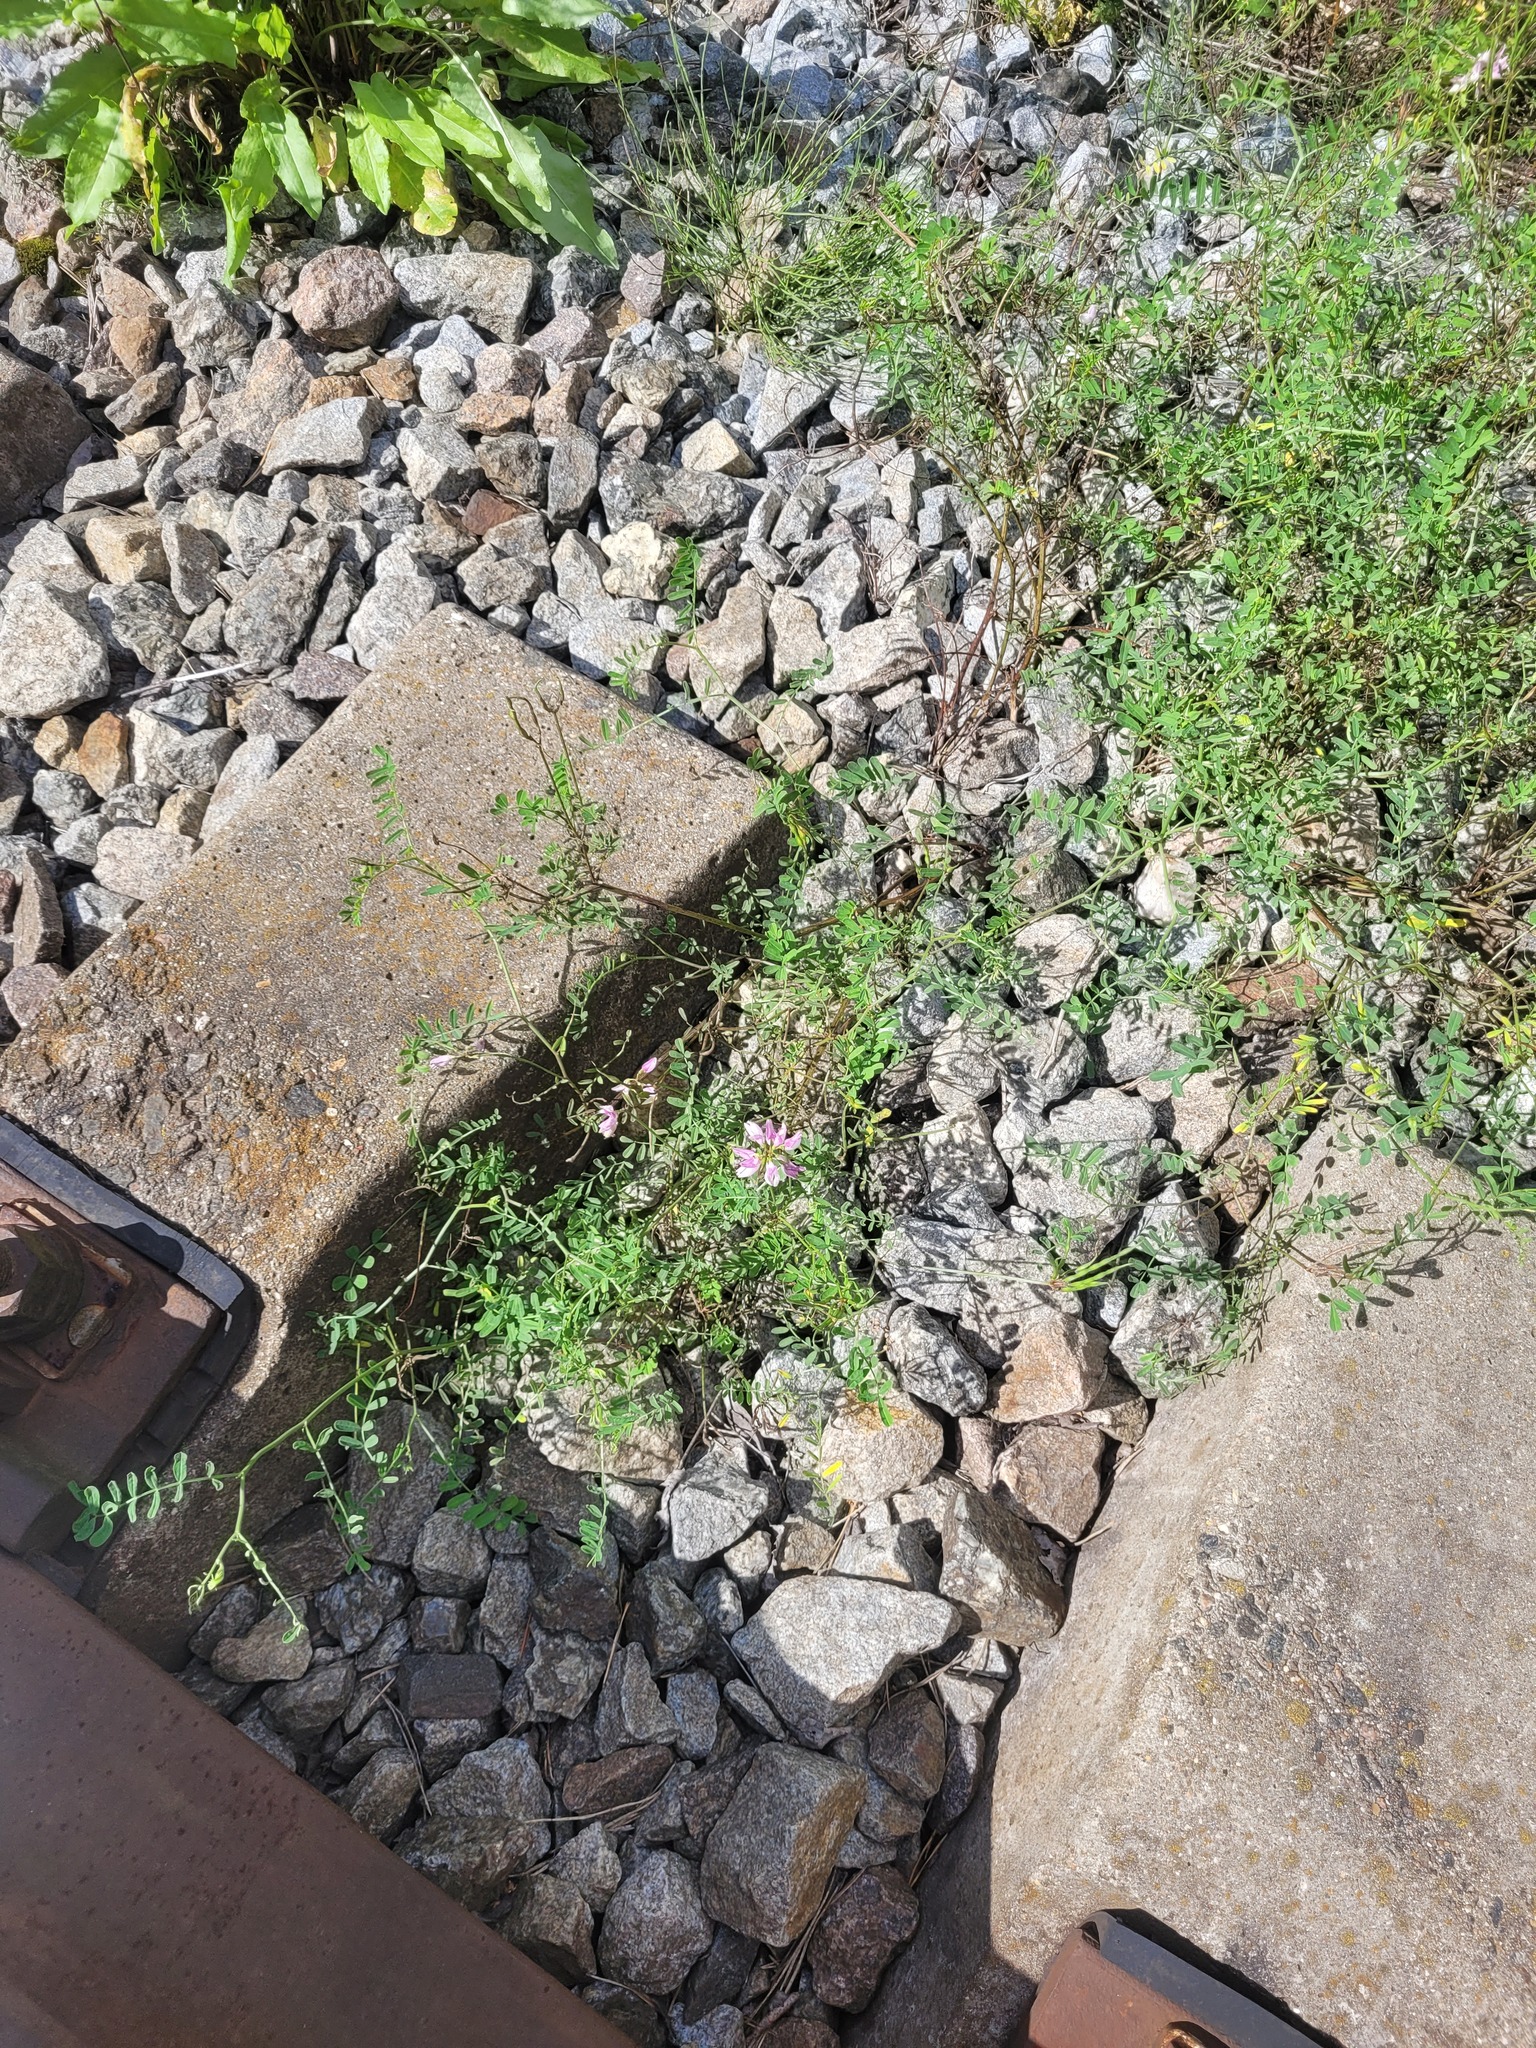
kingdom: Plantae
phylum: Tracheophyta
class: Magnoliopsida
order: Fabales
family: Fabaceae
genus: Coronilla
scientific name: Coronilla varia
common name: Crownvetch
